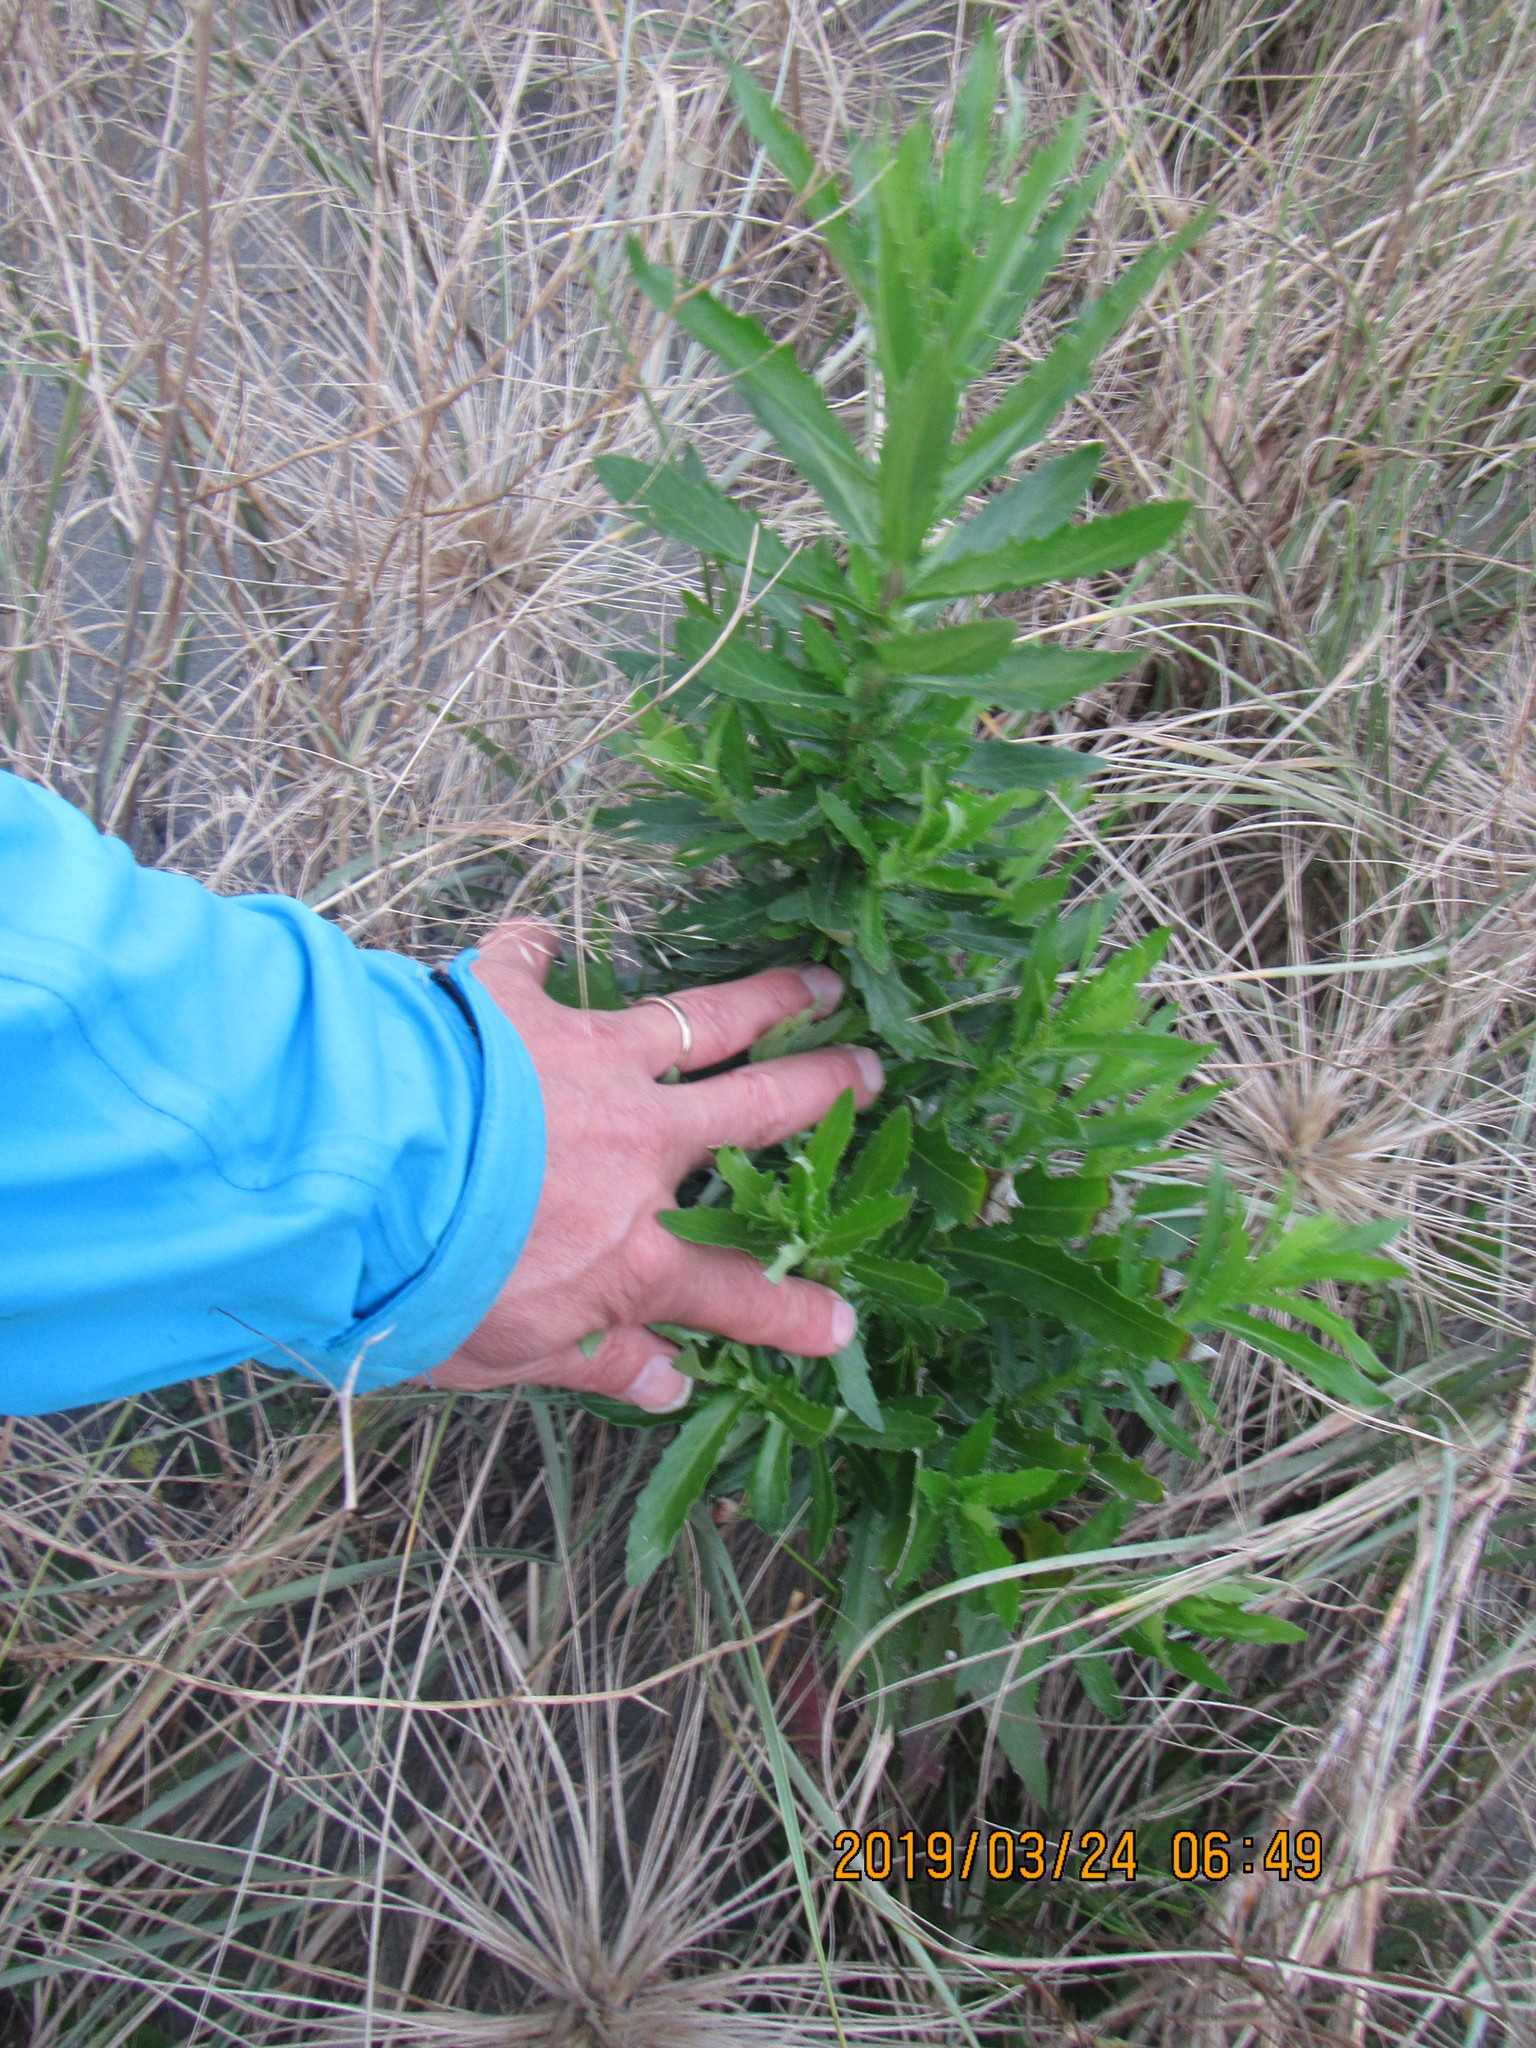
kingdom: Plantae
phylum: Tracheophyta
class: Magnoliopsida
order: Asterales
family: Asteraceae
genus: Senecio
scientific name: Senecio glastifolius
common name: Woad-leaved ragwort
